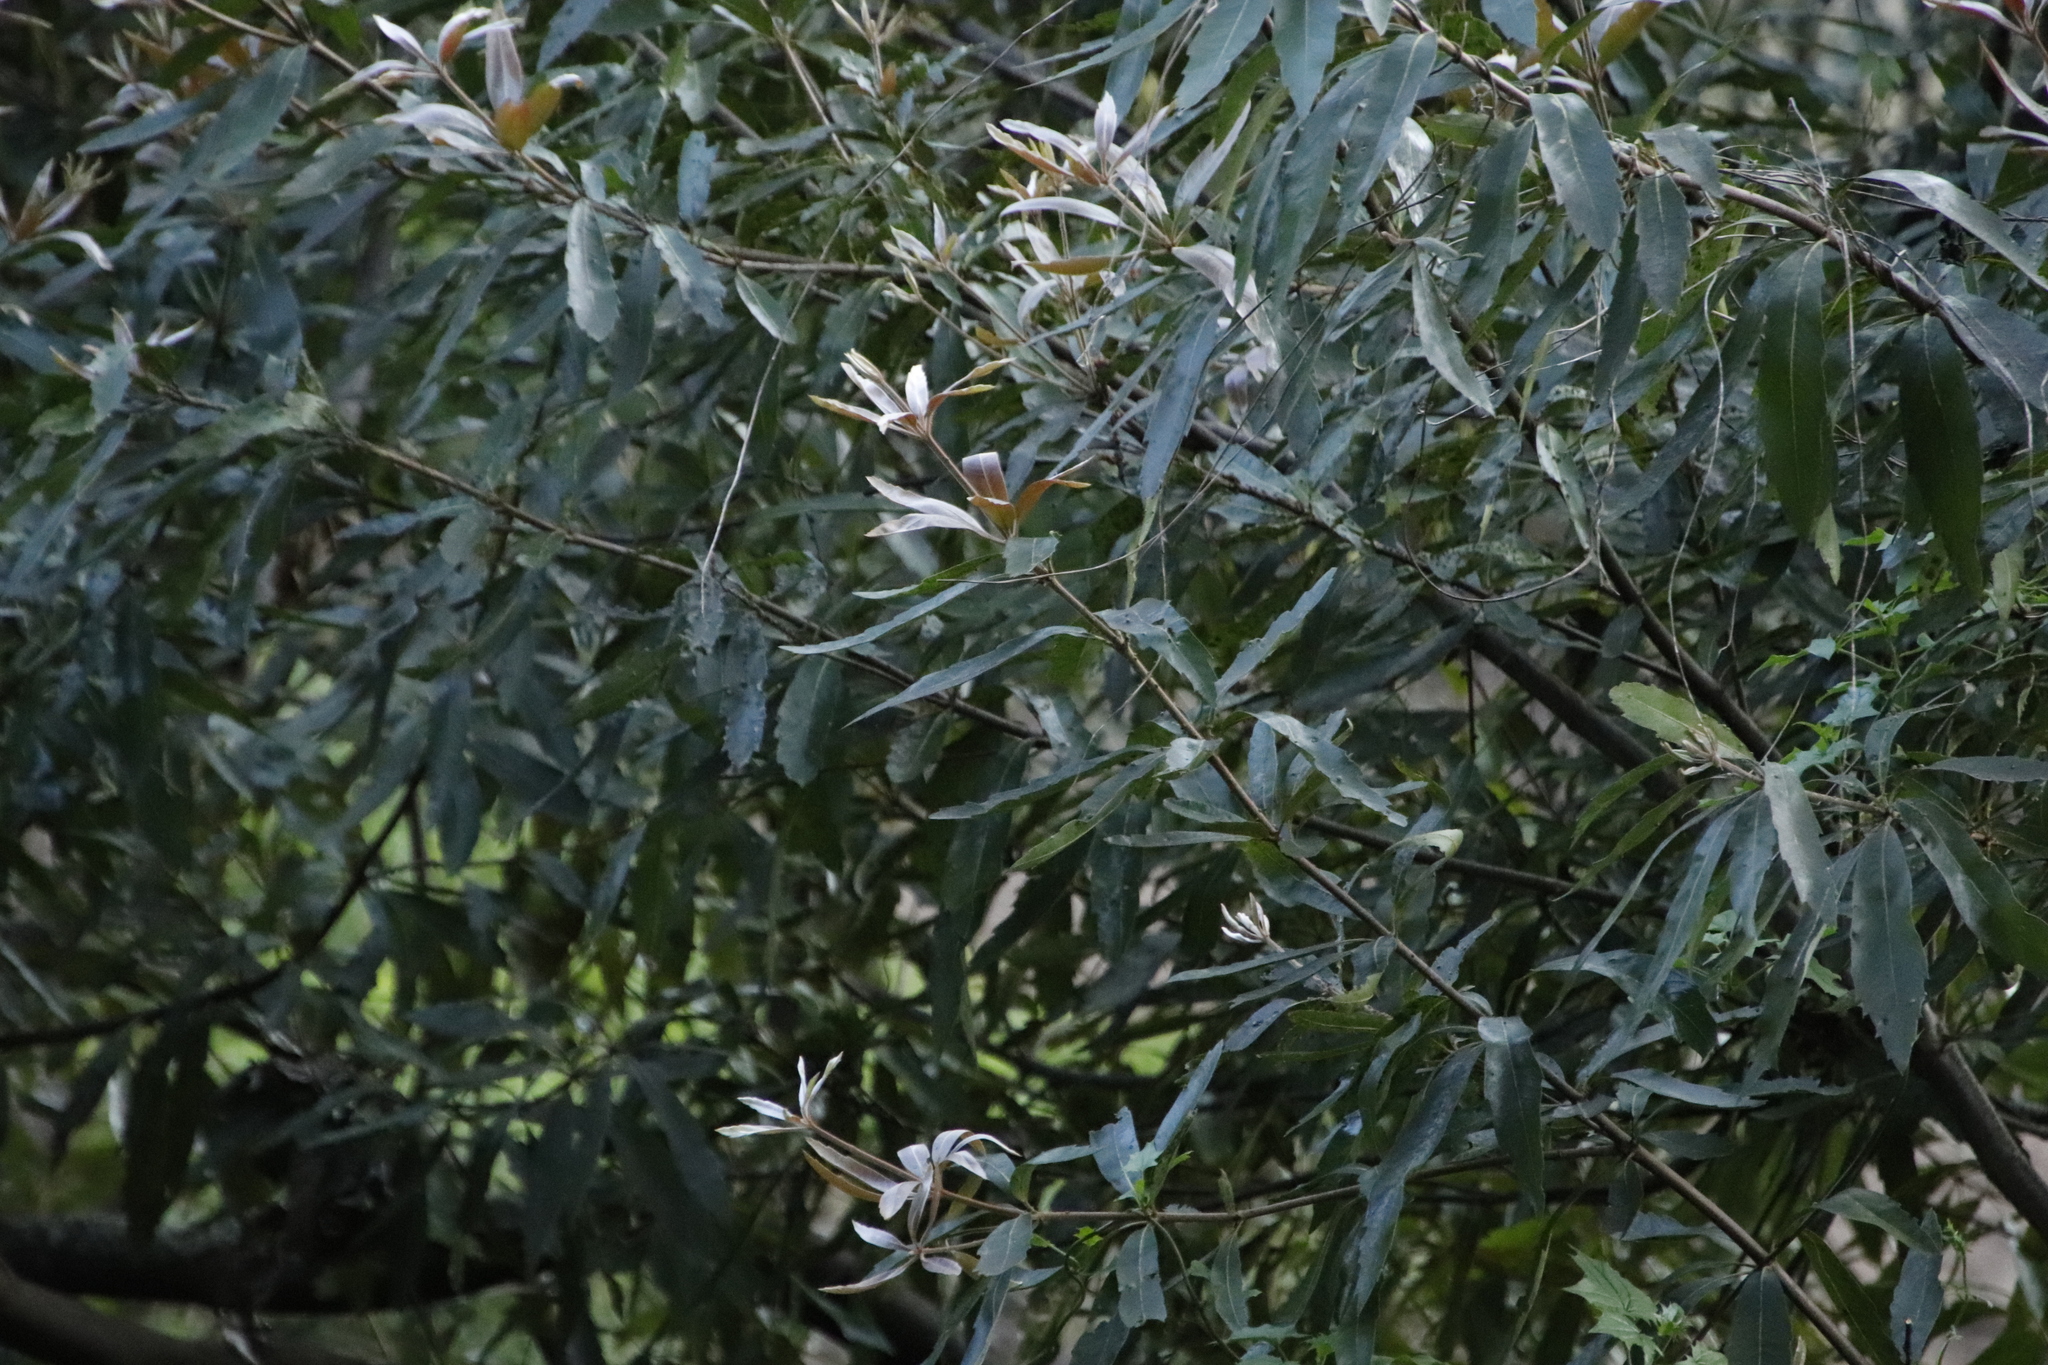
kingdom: Plantae
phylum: Tracheophyta
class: Magnoliopsida
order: Proteales
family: Proteaceae
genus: Brabejum
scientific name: Brabejum stellatifolium
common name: Wild almond
